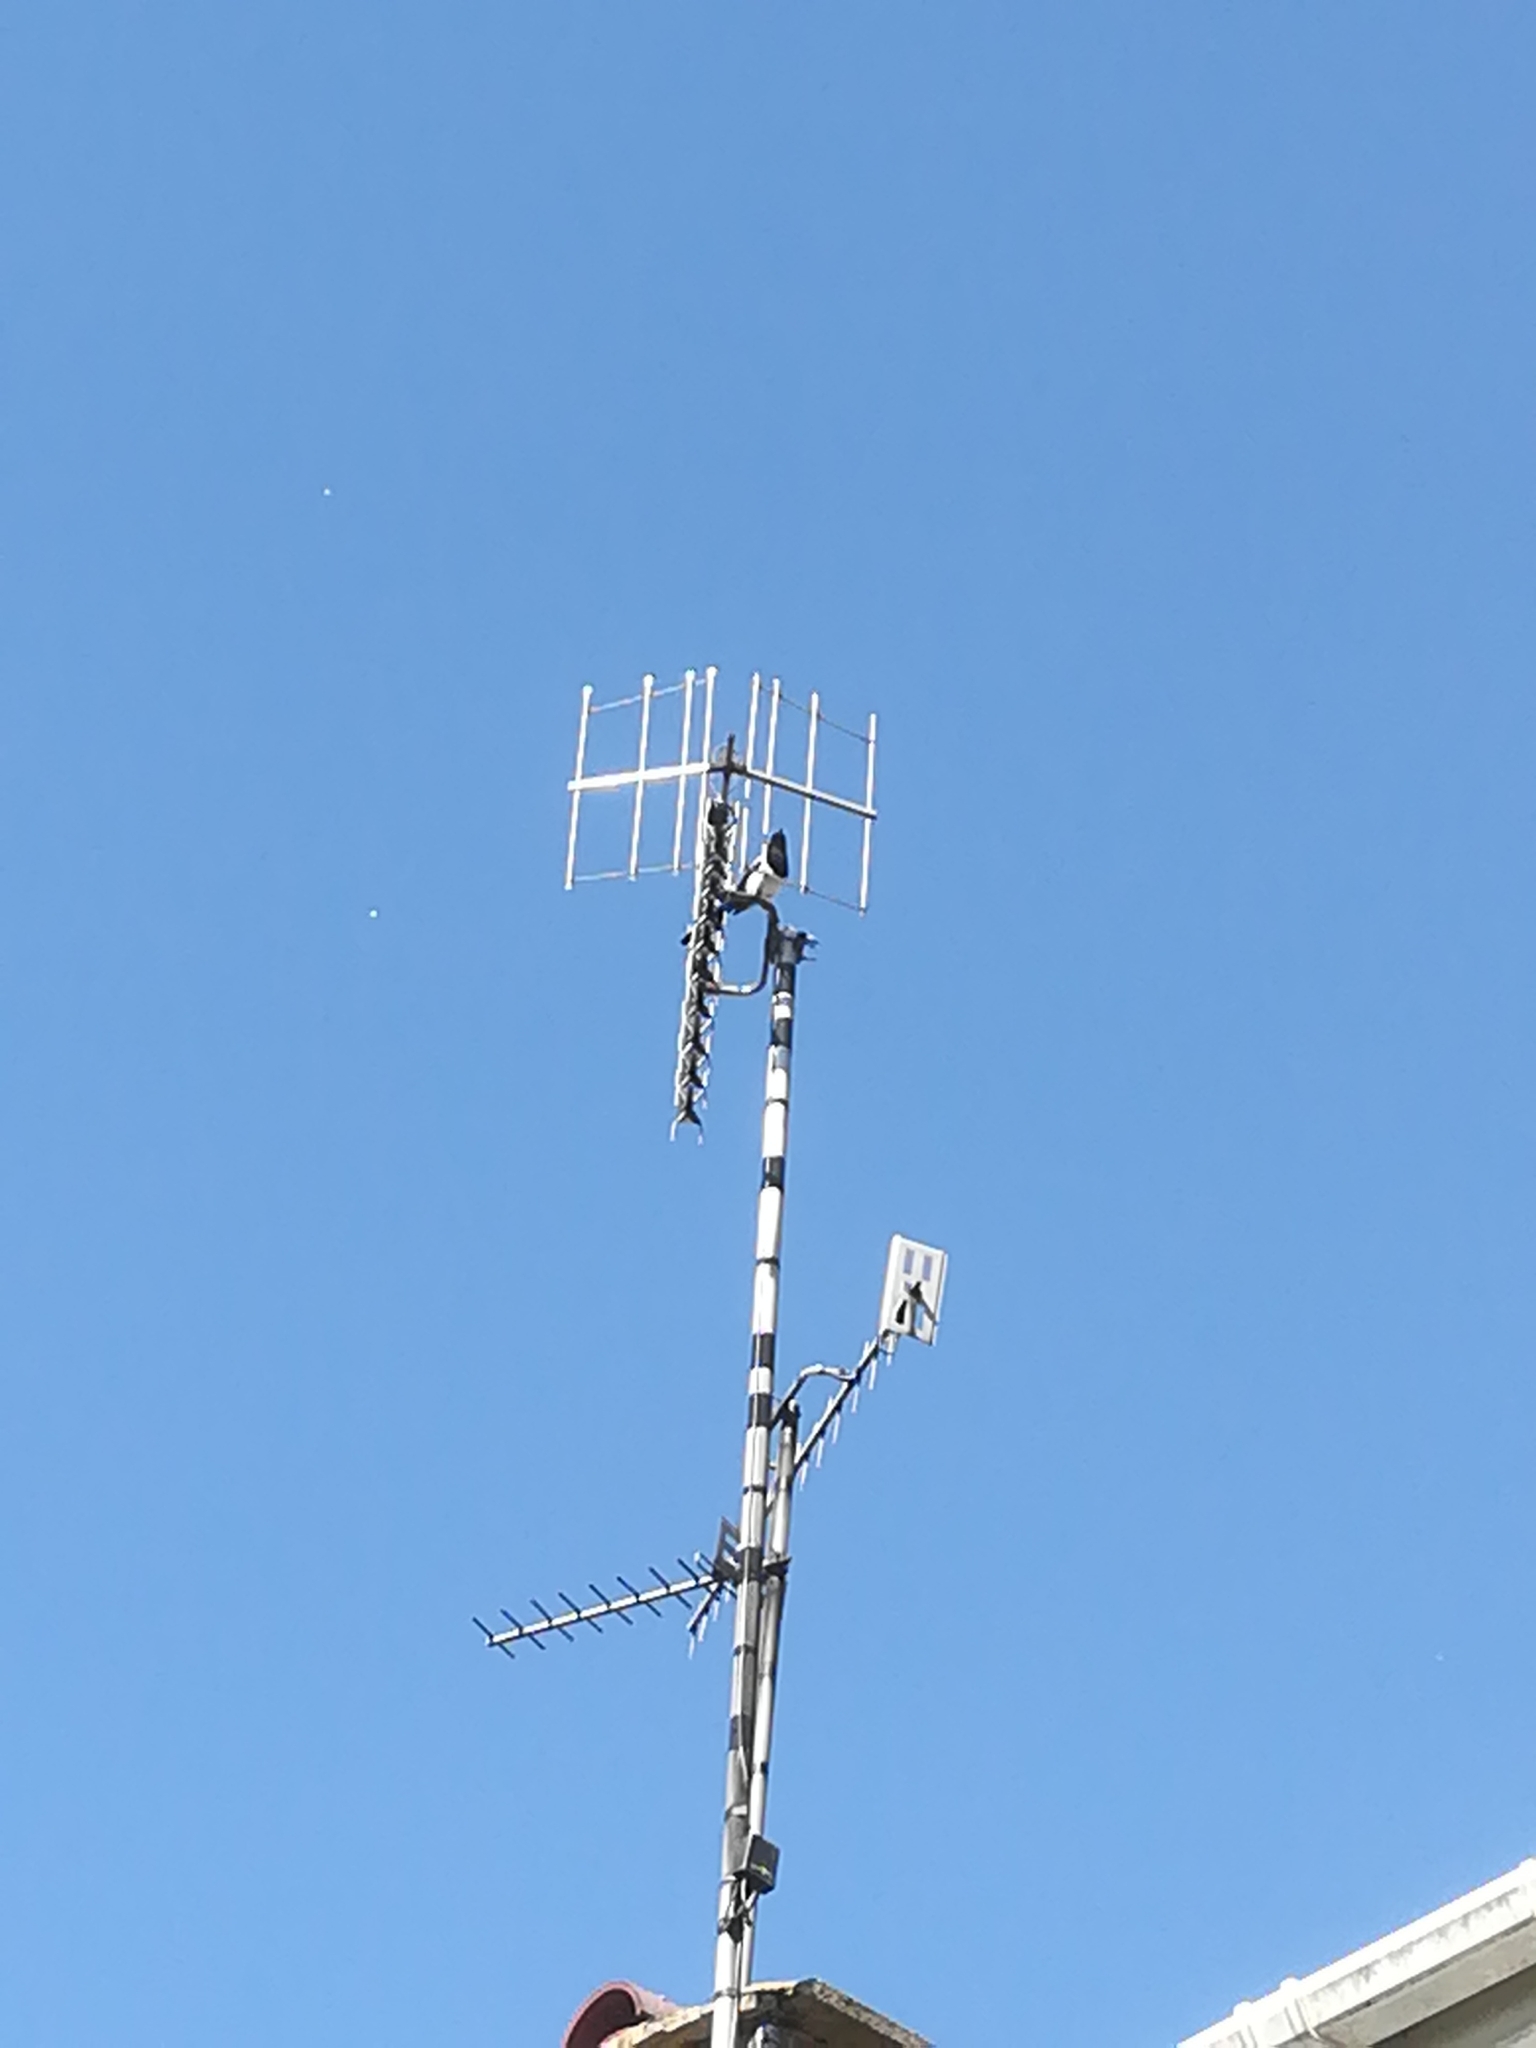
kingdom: Animalia
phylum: Chordata
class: Aves
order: Passeriformes
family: Corvidae
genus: Pica
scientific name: Pica pica
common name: Eurasian magpie
